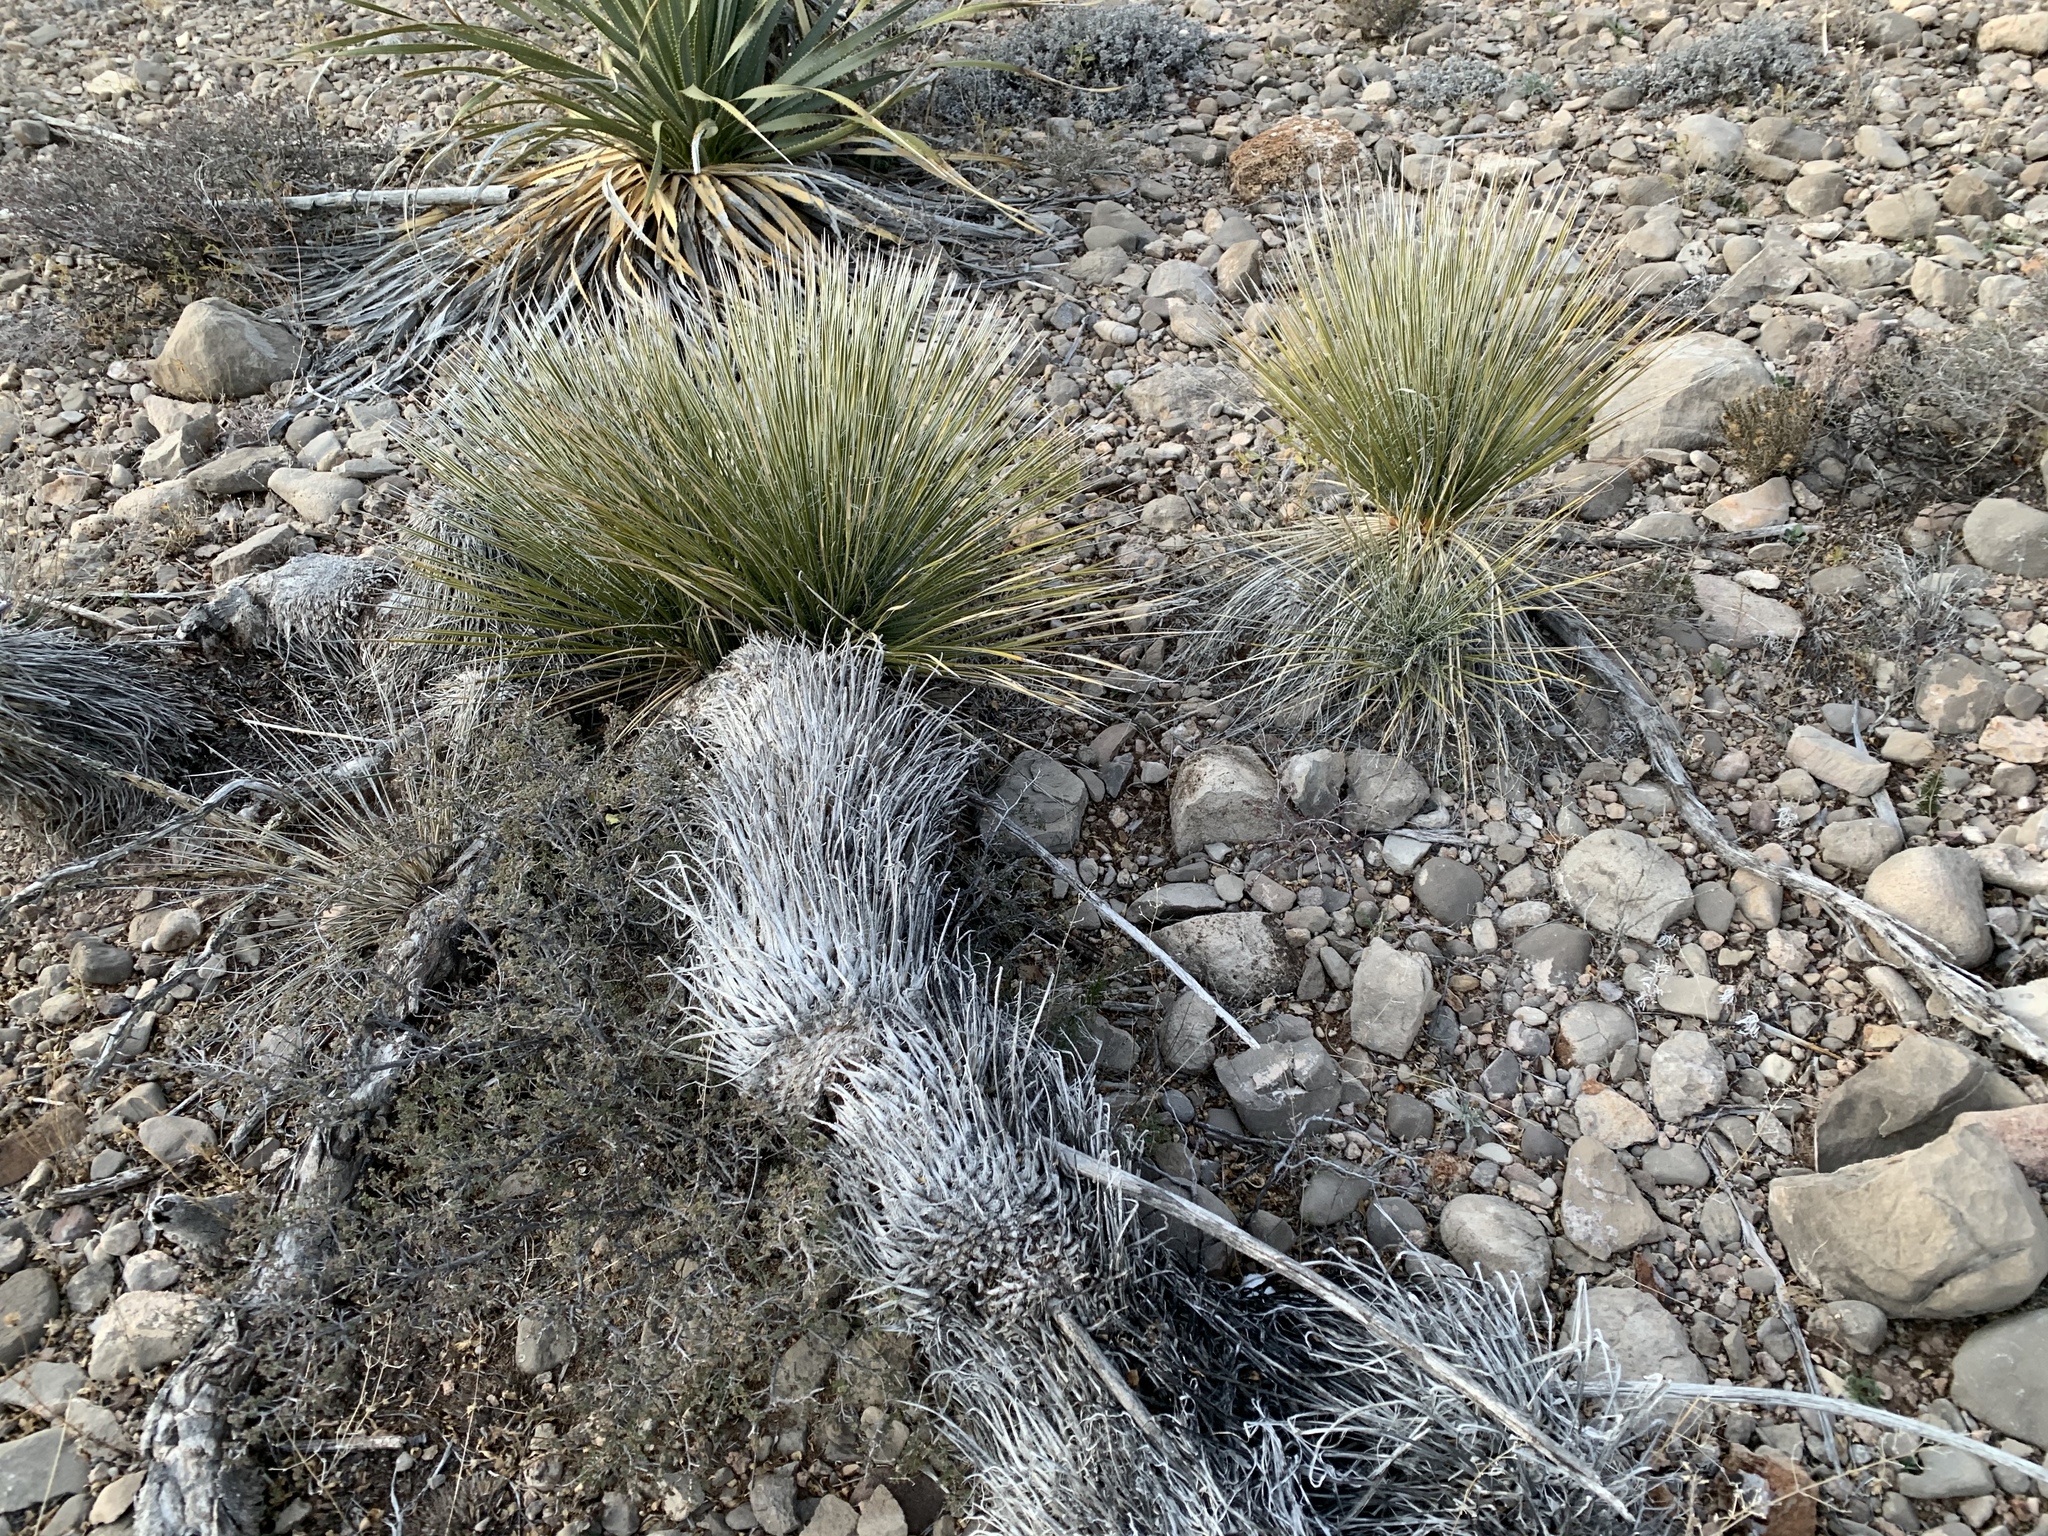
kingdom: Plantae
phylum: Tracheophyta
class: Liliopsida
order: Asparagales
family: Asparagaceae
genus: Yucca
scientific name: Yucca elata
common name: Palmella
